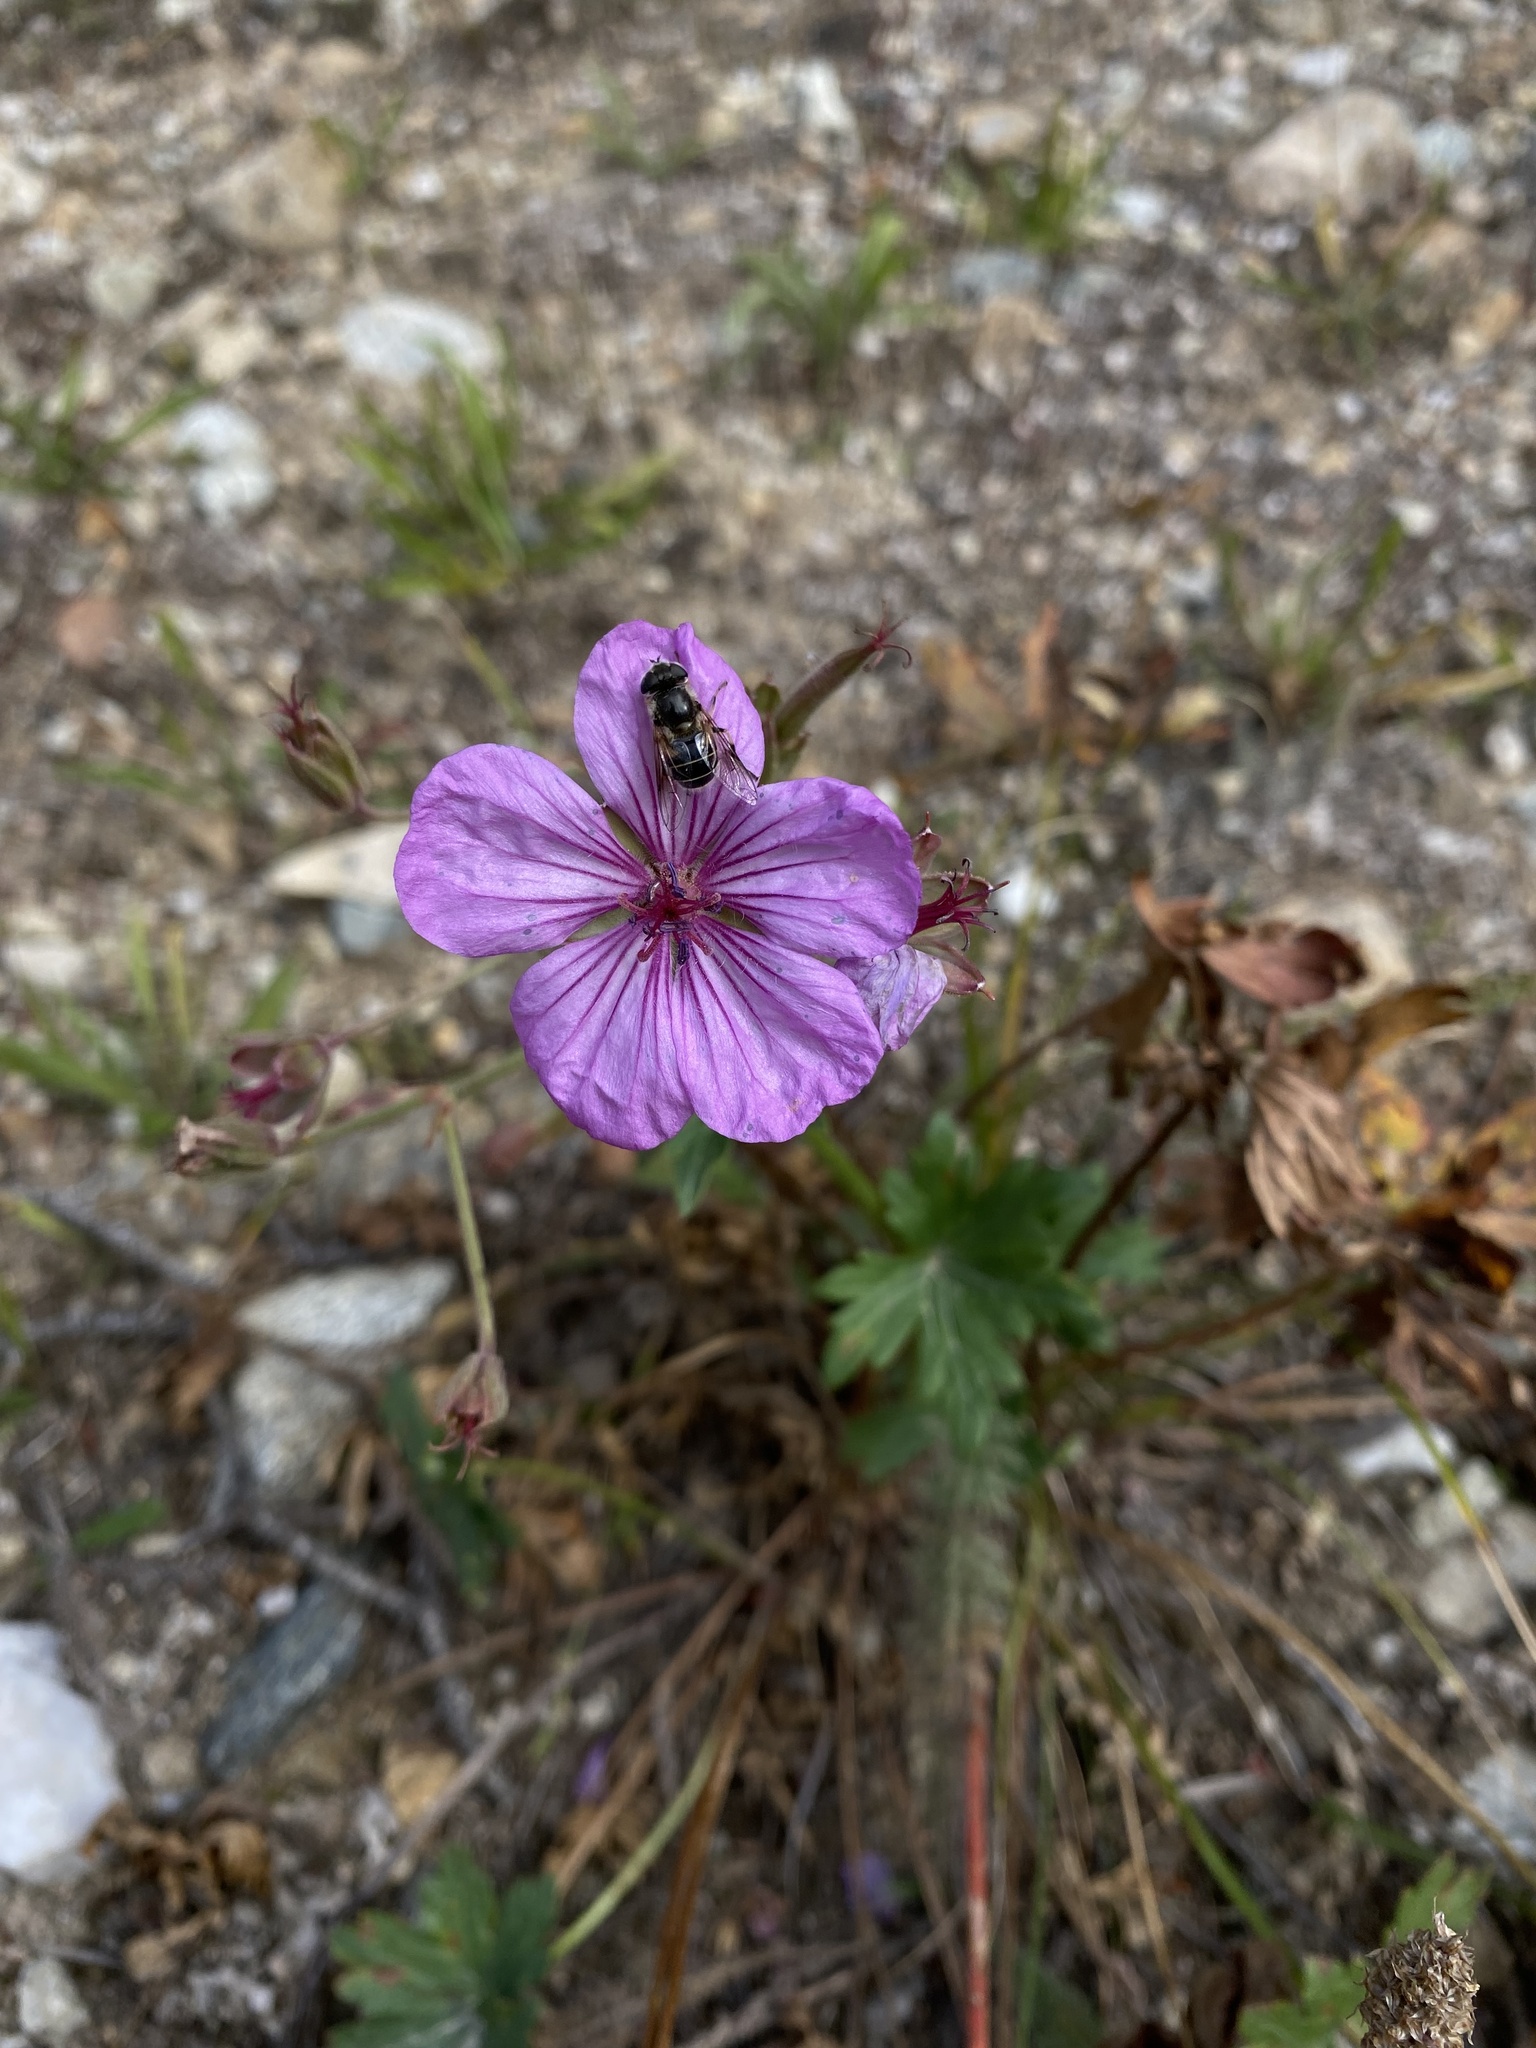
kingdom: Plantae
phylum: Tracheophyta
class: Magnoliopsida
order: Geraniales
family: Geraniaceae
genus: Geranium
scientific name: Geranium viscosissimum
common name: Purple geranium
